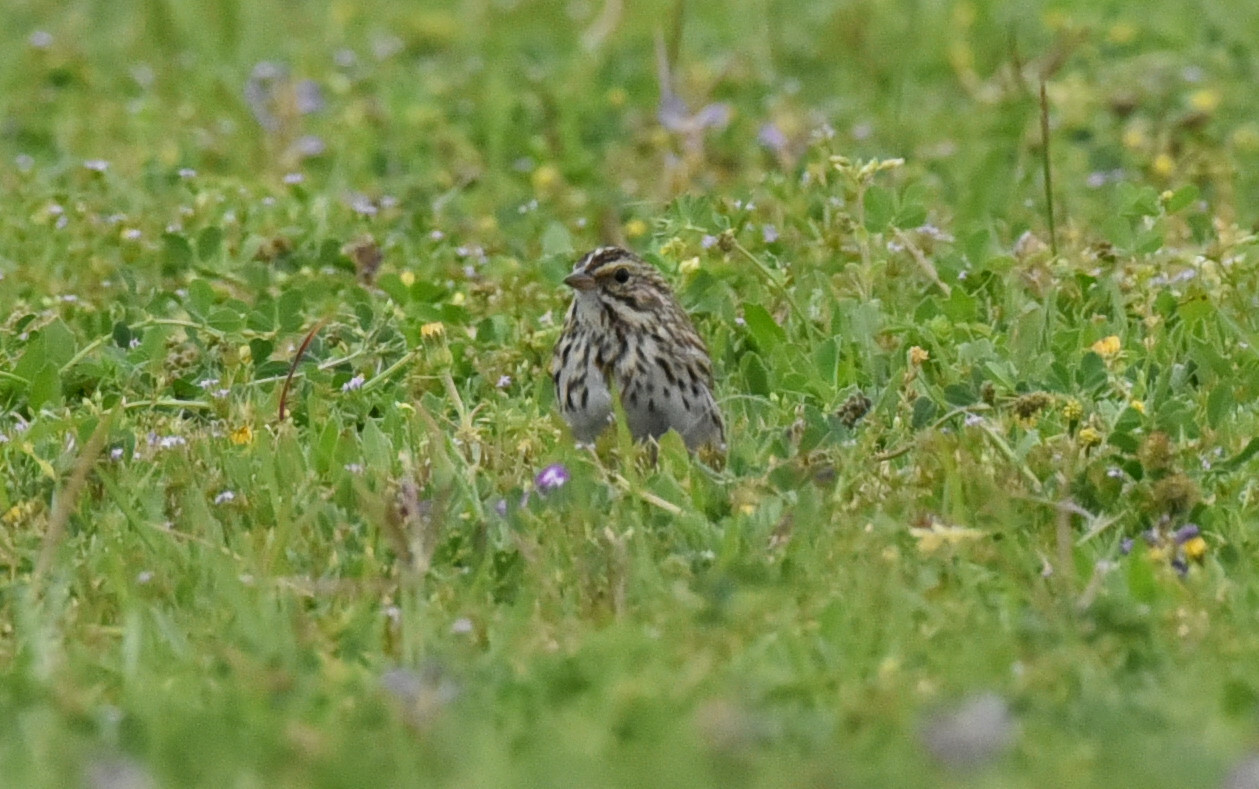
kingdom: Animalia
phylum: Chordata
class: Aves
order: Passeriformes
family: Passerellidae
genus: Passerculus
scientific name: Passerculus sandwichensis
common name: Savannah sparrow
